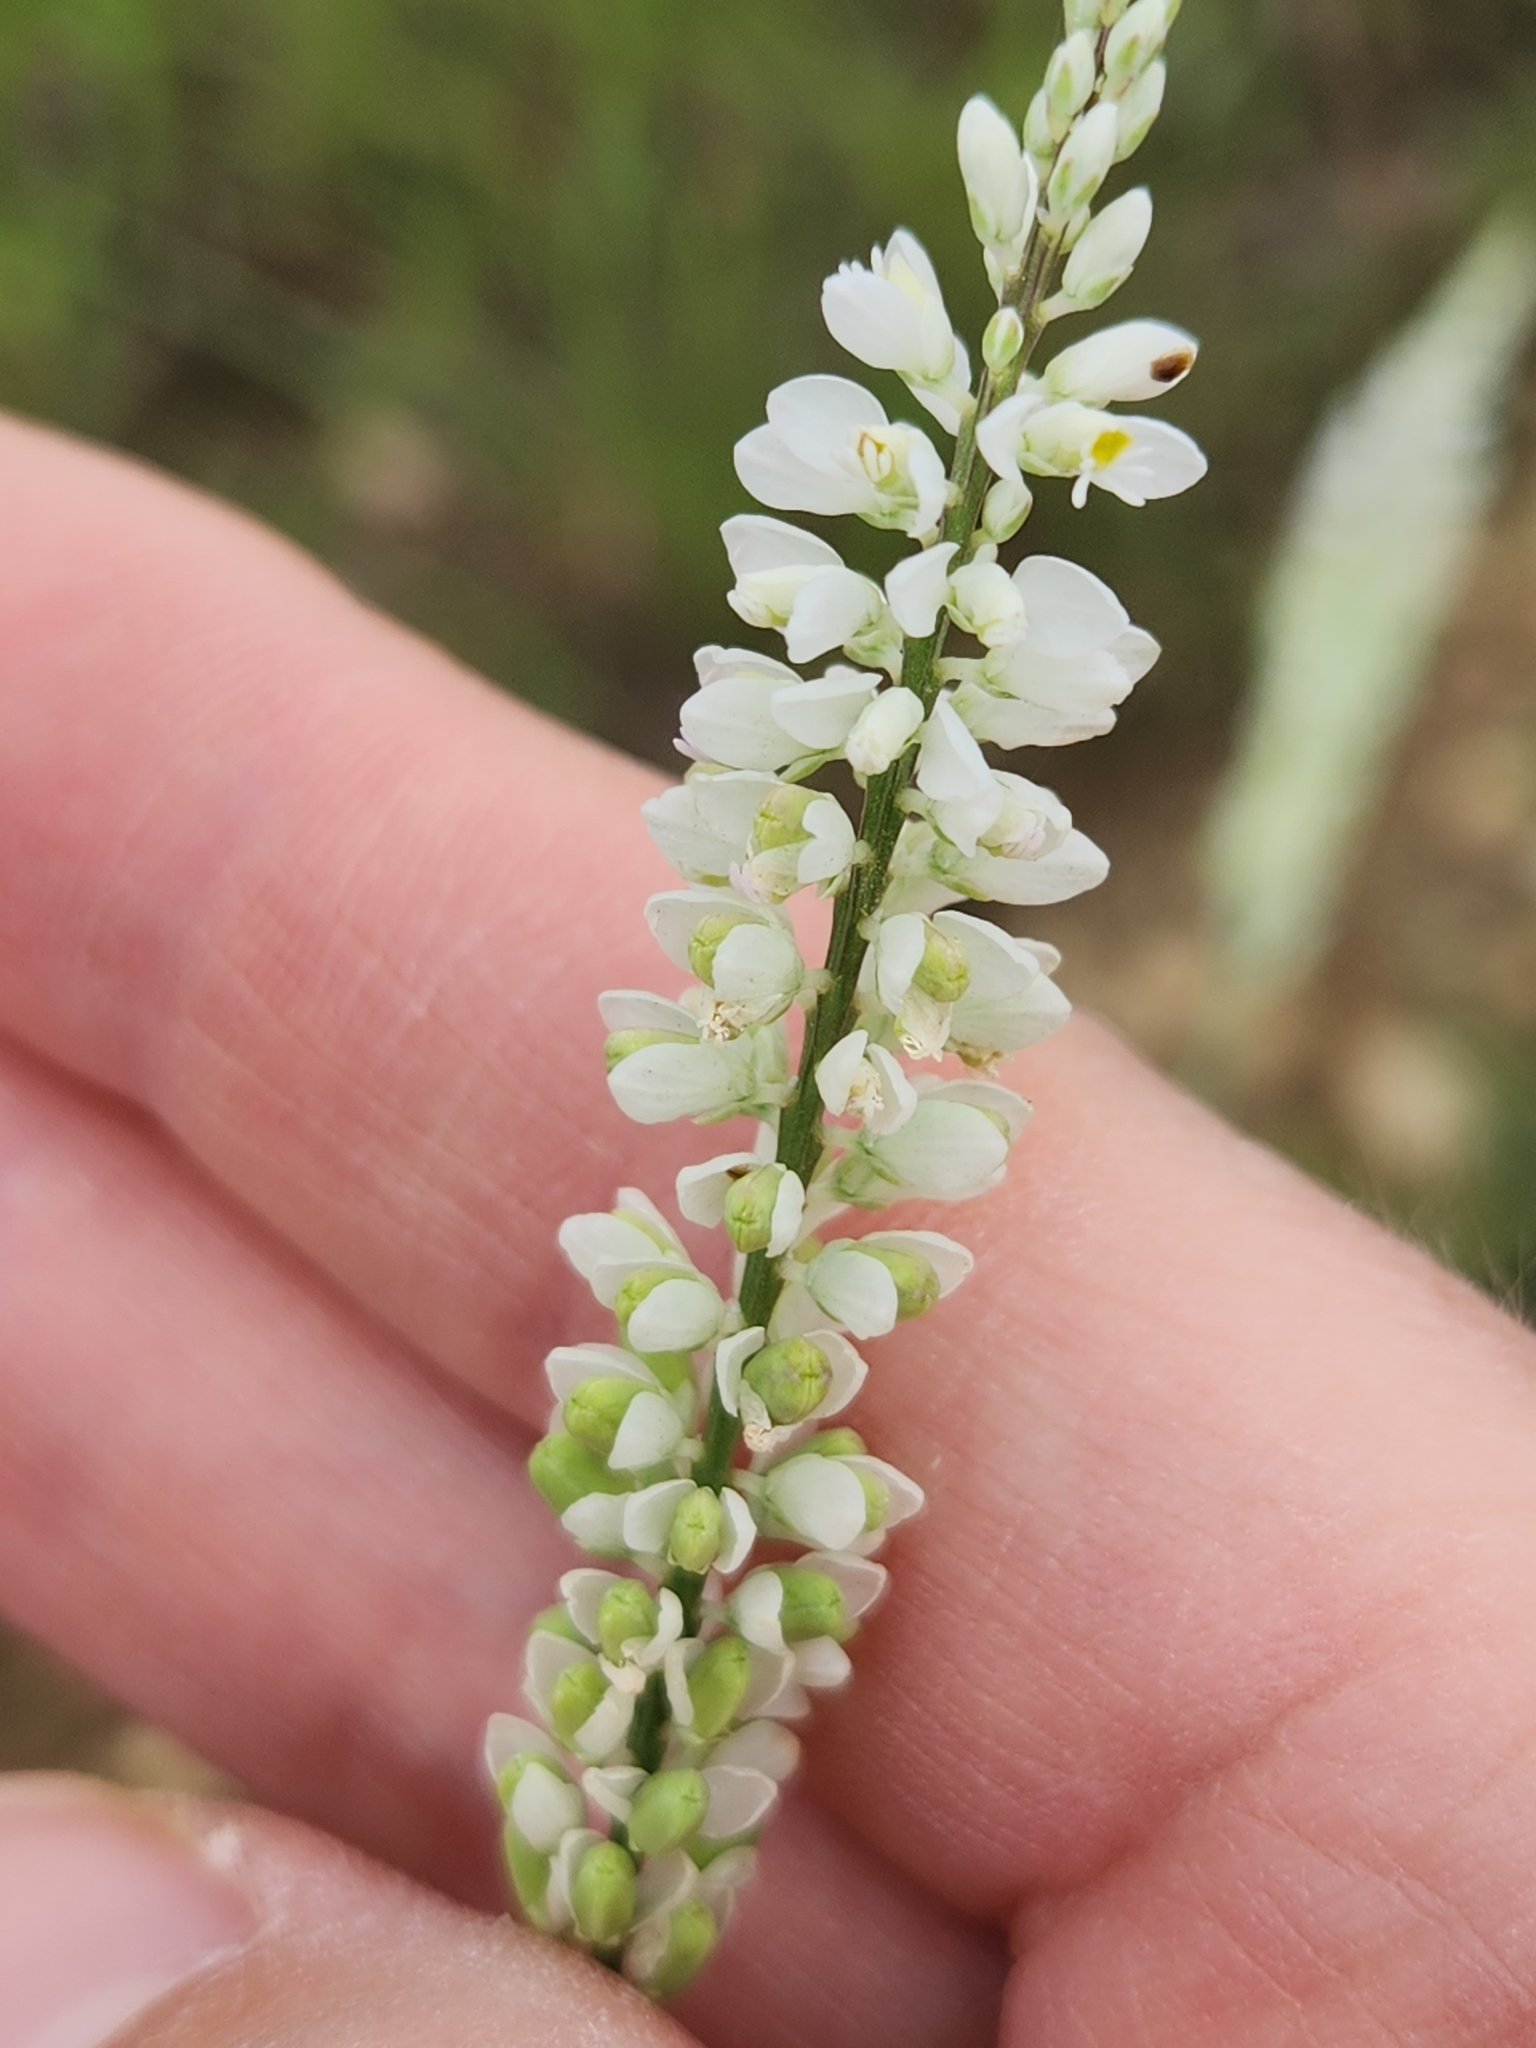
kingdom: Plantae
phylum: Tracheophyta
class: Magnoliopsida
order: Fabales
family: Polygalaceae
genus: Polygala
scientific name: Polygala alba
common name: White milkwort
